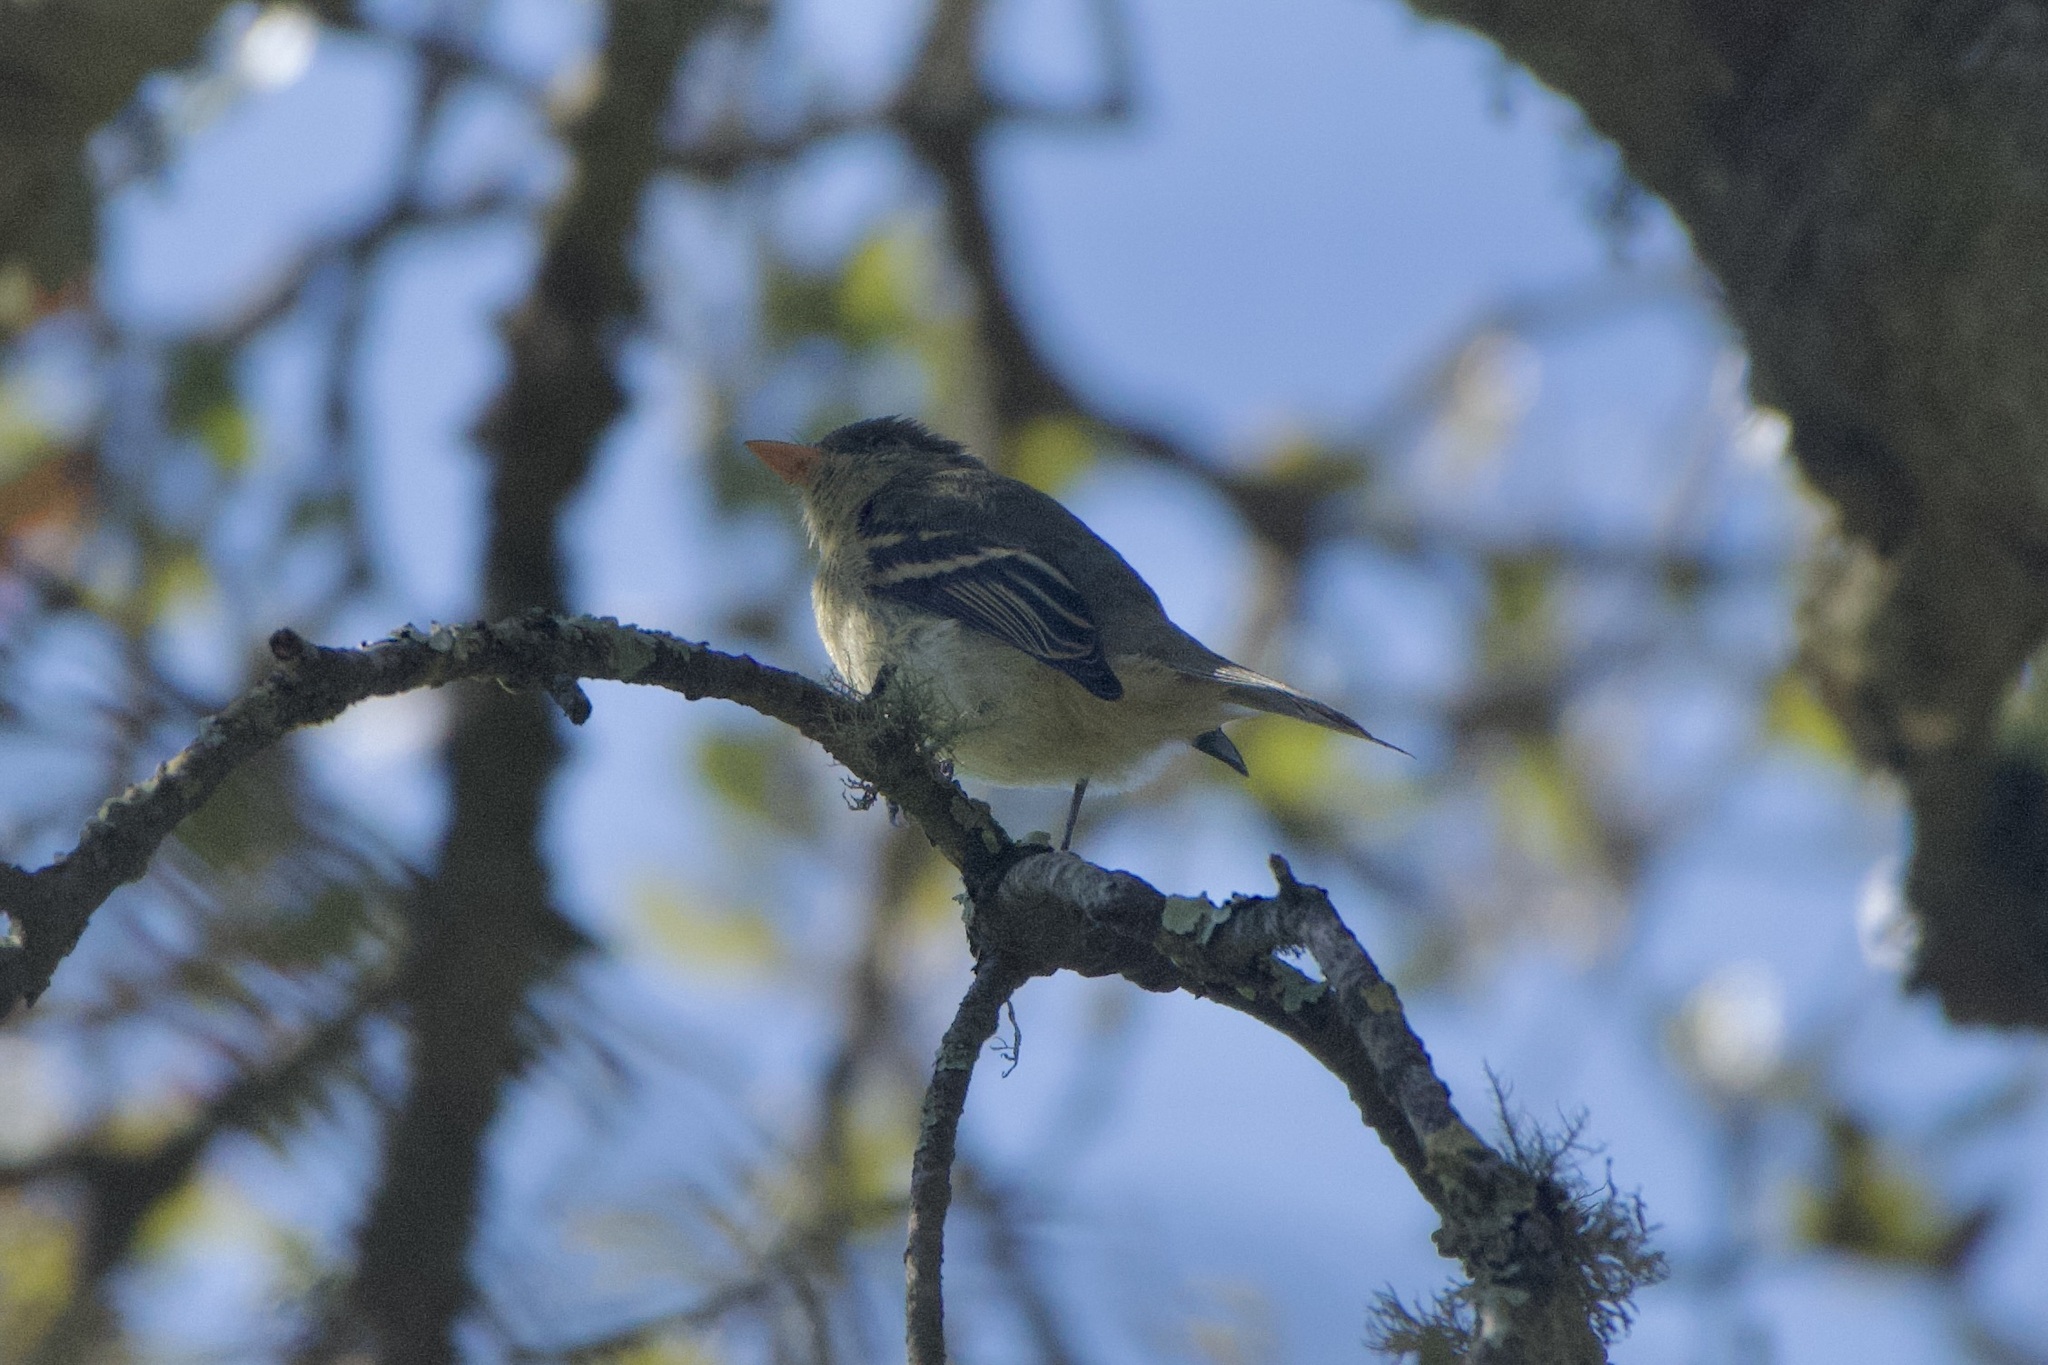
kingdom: Animalia
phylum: Chordata
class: Aves
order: Passeriformes
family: Tyrannidae
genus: Empidonax
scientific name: Empidonax difficilis
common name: Pacific-slope flycatcher
